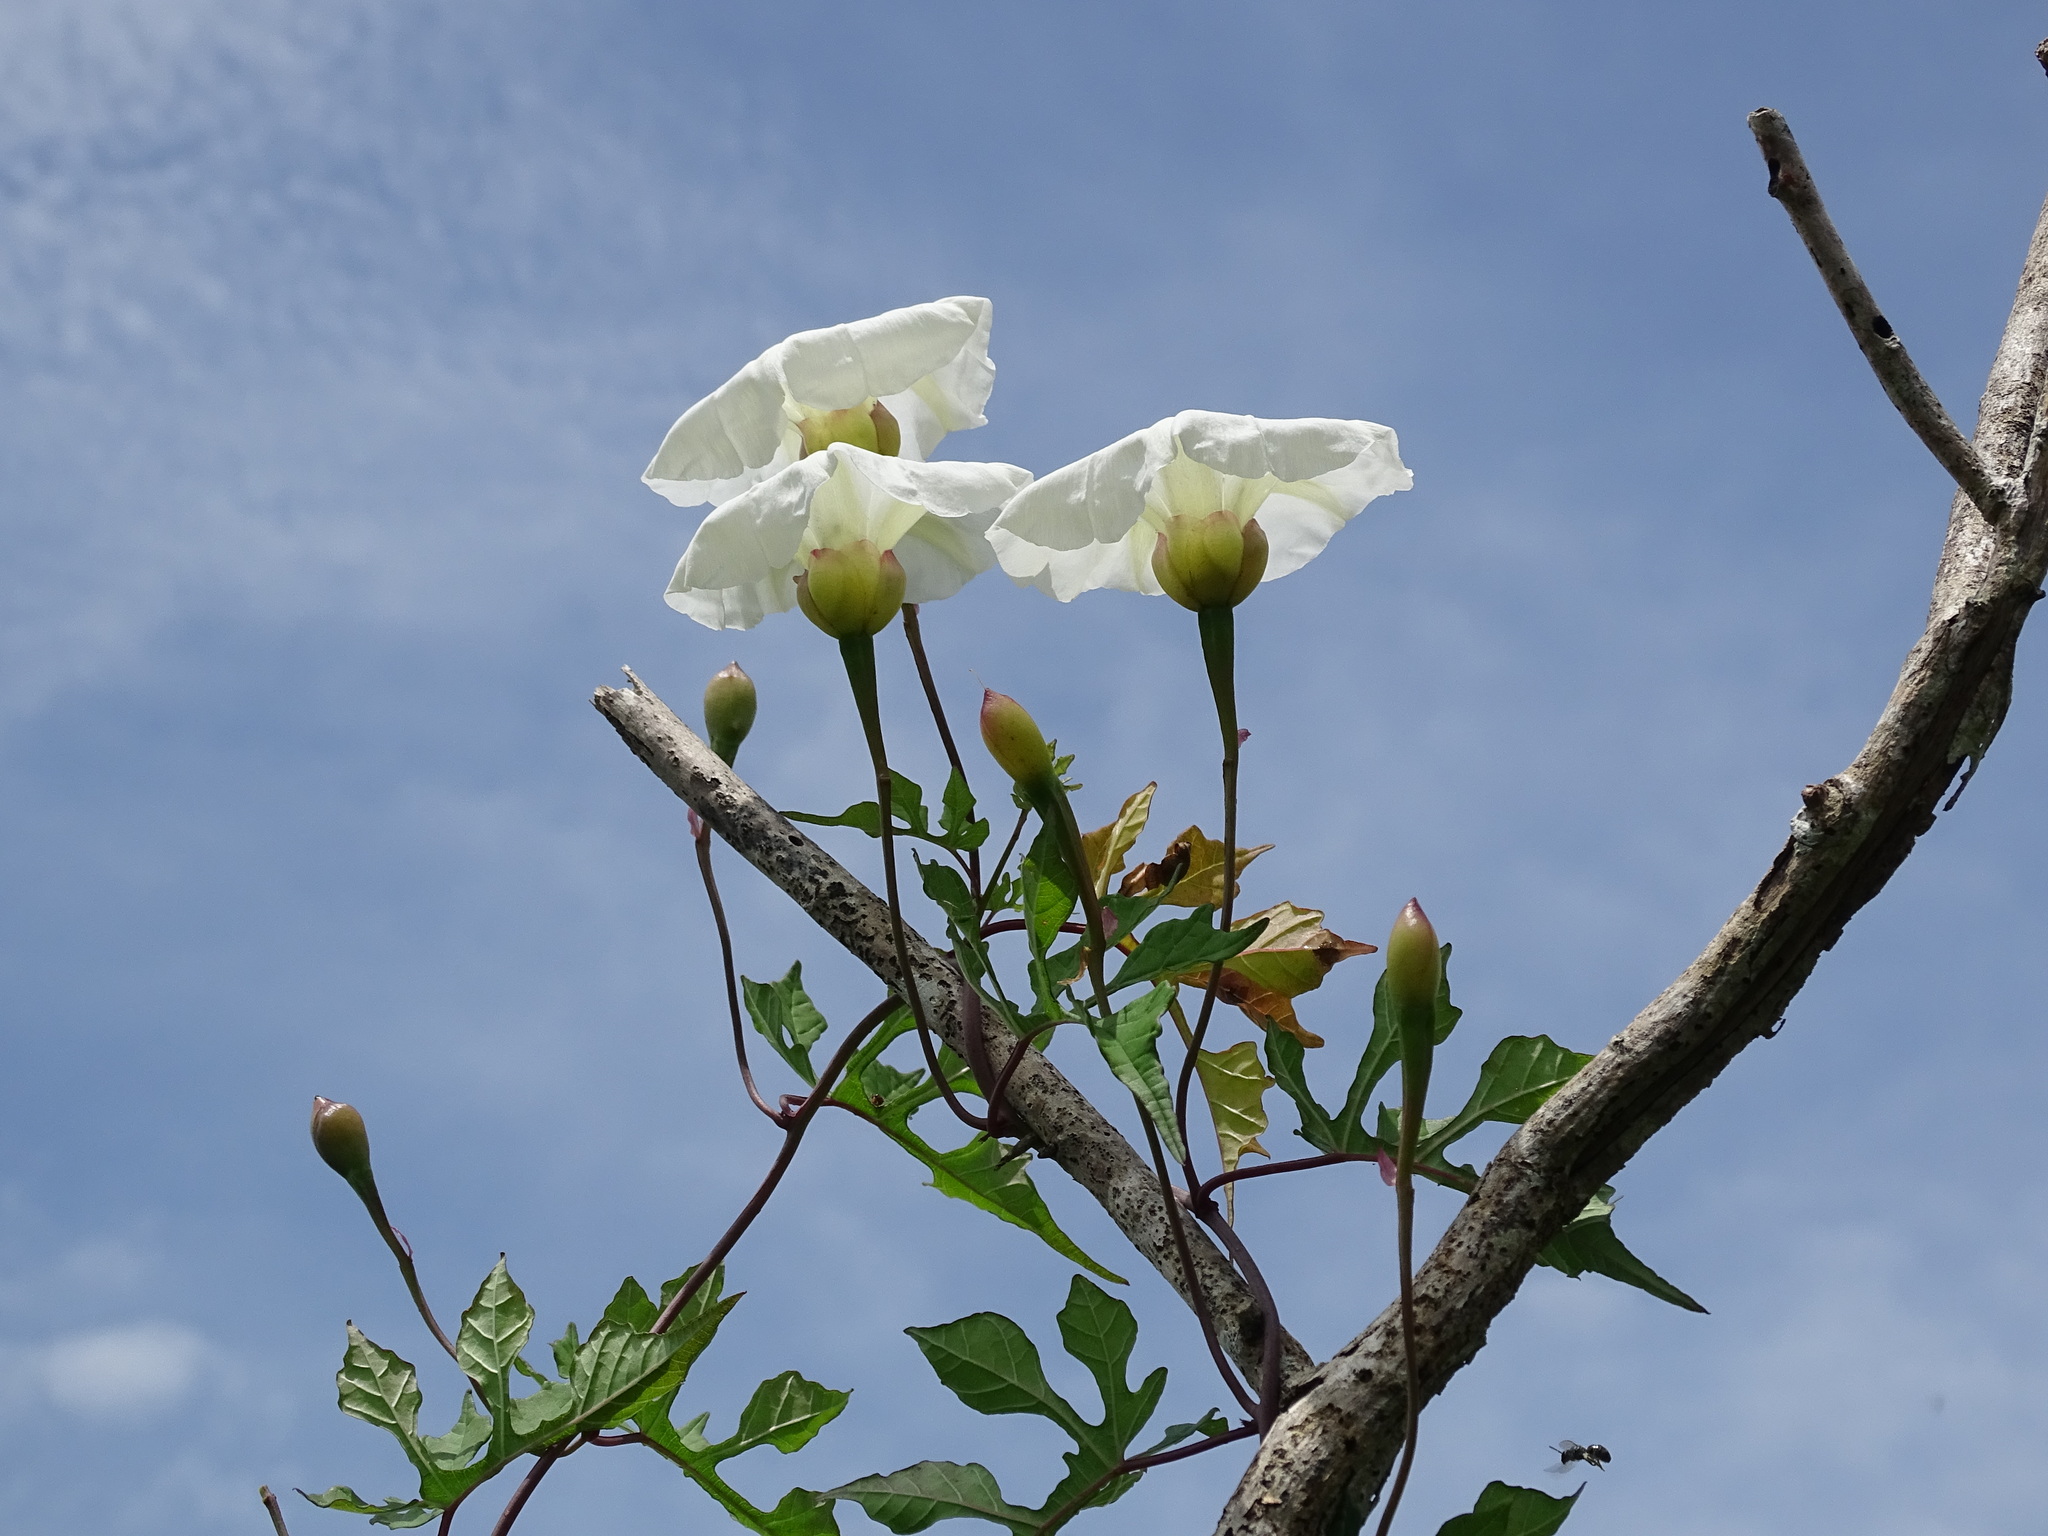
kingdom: Plantae
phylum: Tracheophyta
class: Magnoliopsida
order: Solanales
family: Convolvulaceae
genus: Operculina
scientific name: Operculina pinnatifida
